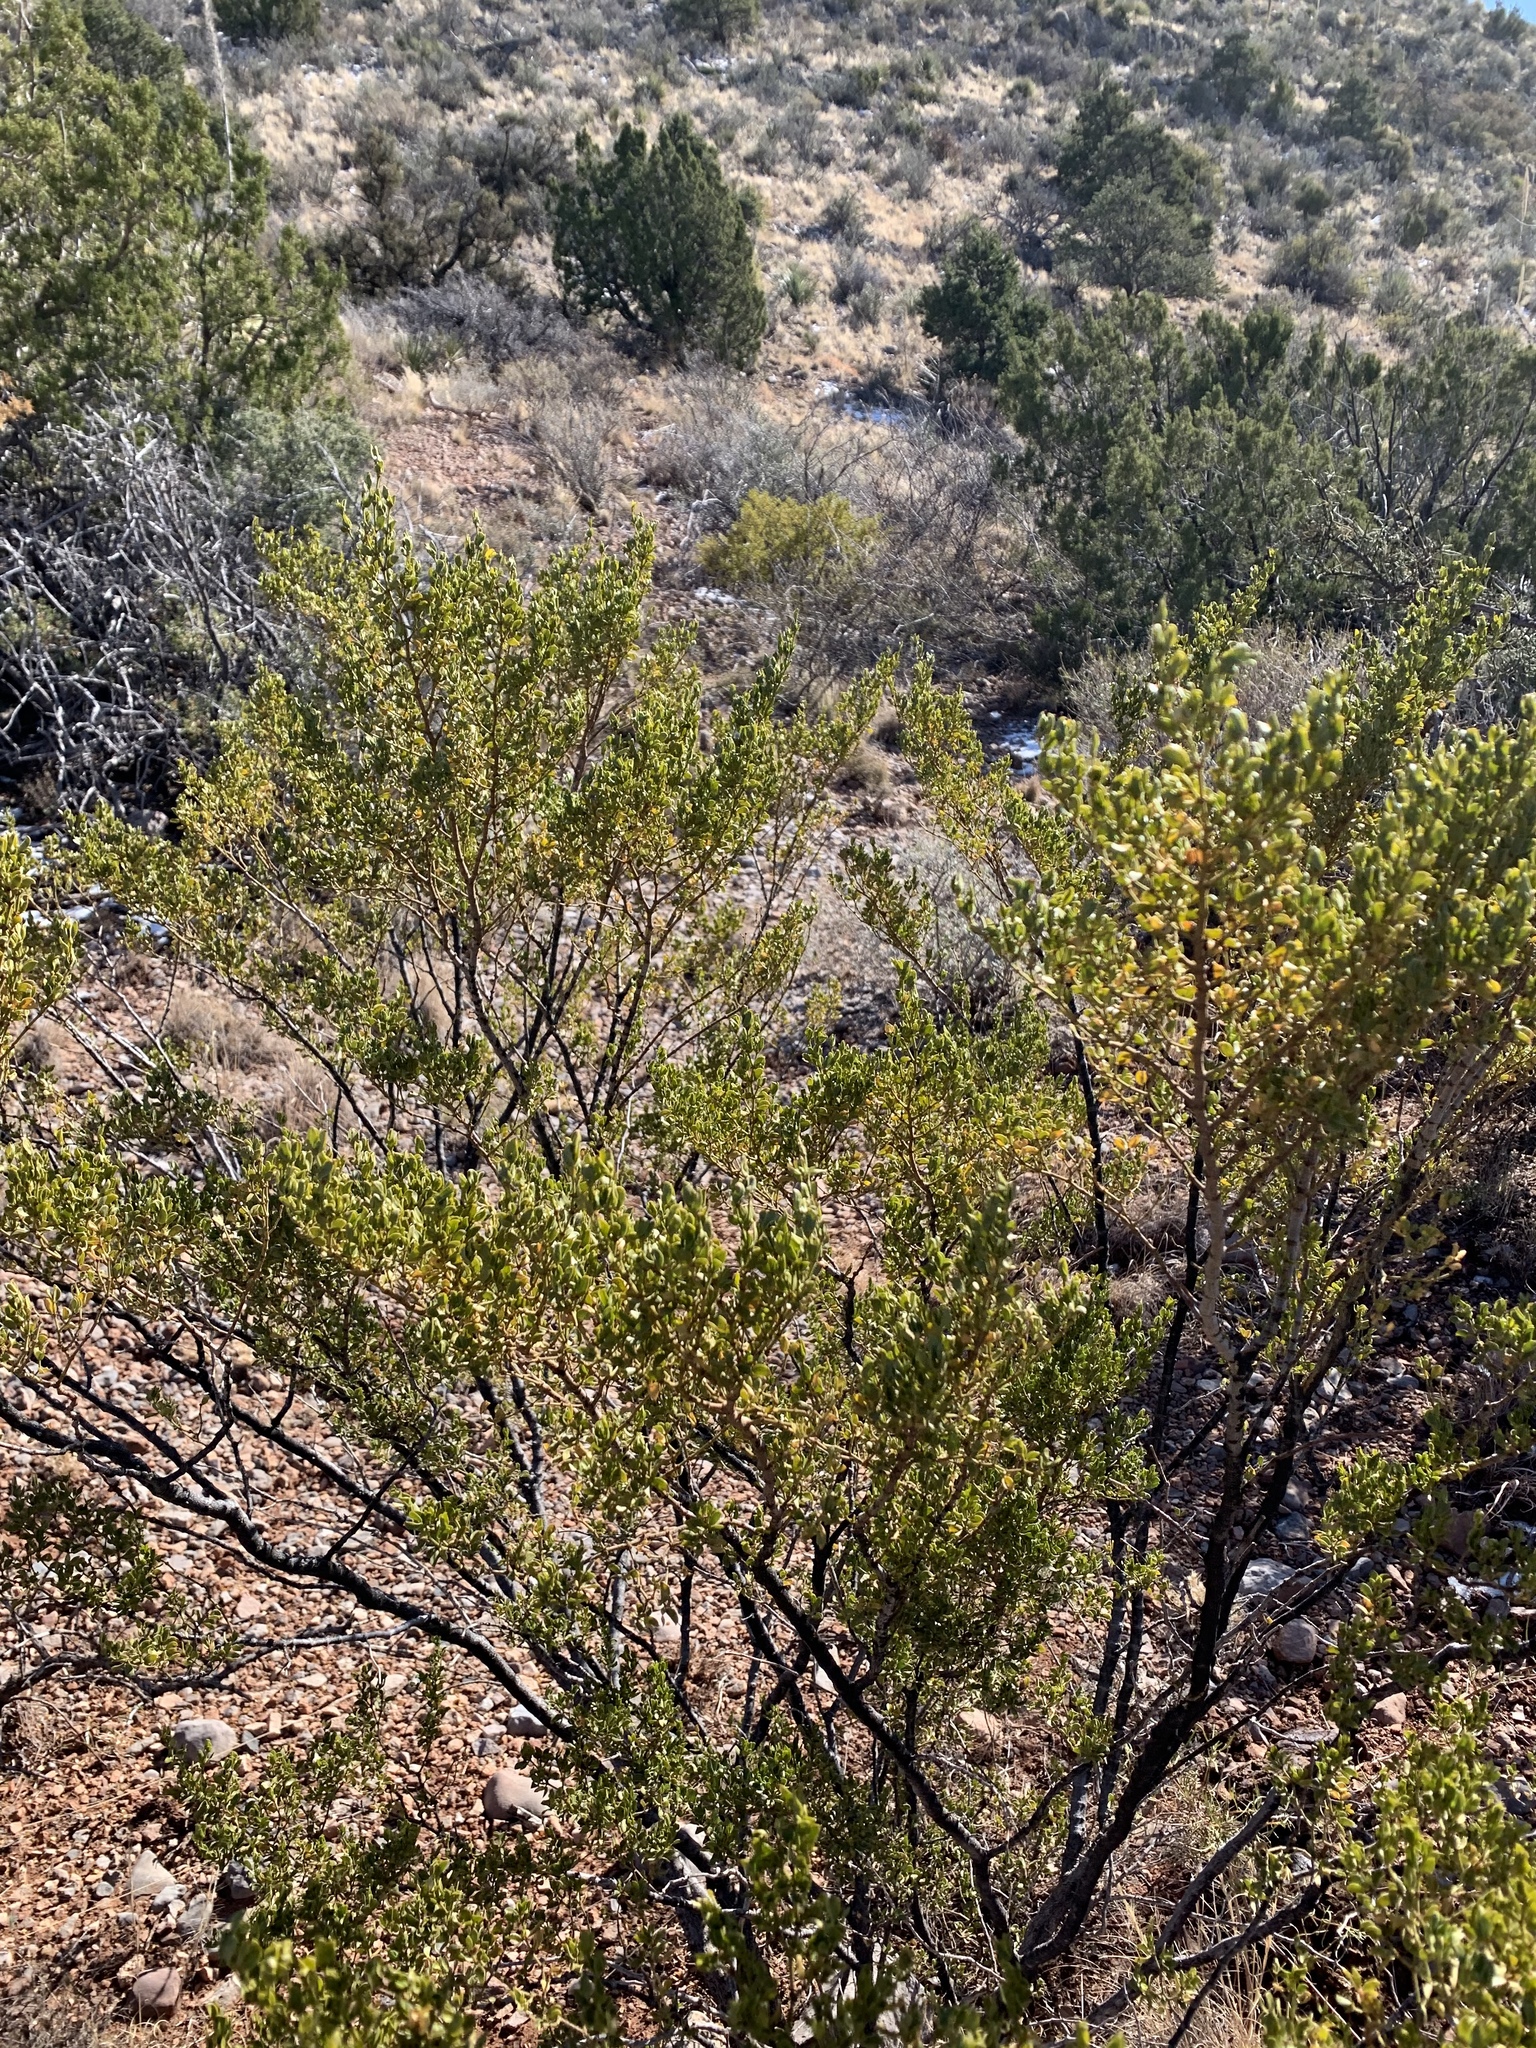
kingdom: Plantae
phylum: Tracheophyta
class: Magnoliopsida
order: Zygophyllales
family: Zygophyllaceae
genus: Larrea
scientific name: Larrea tridentata
